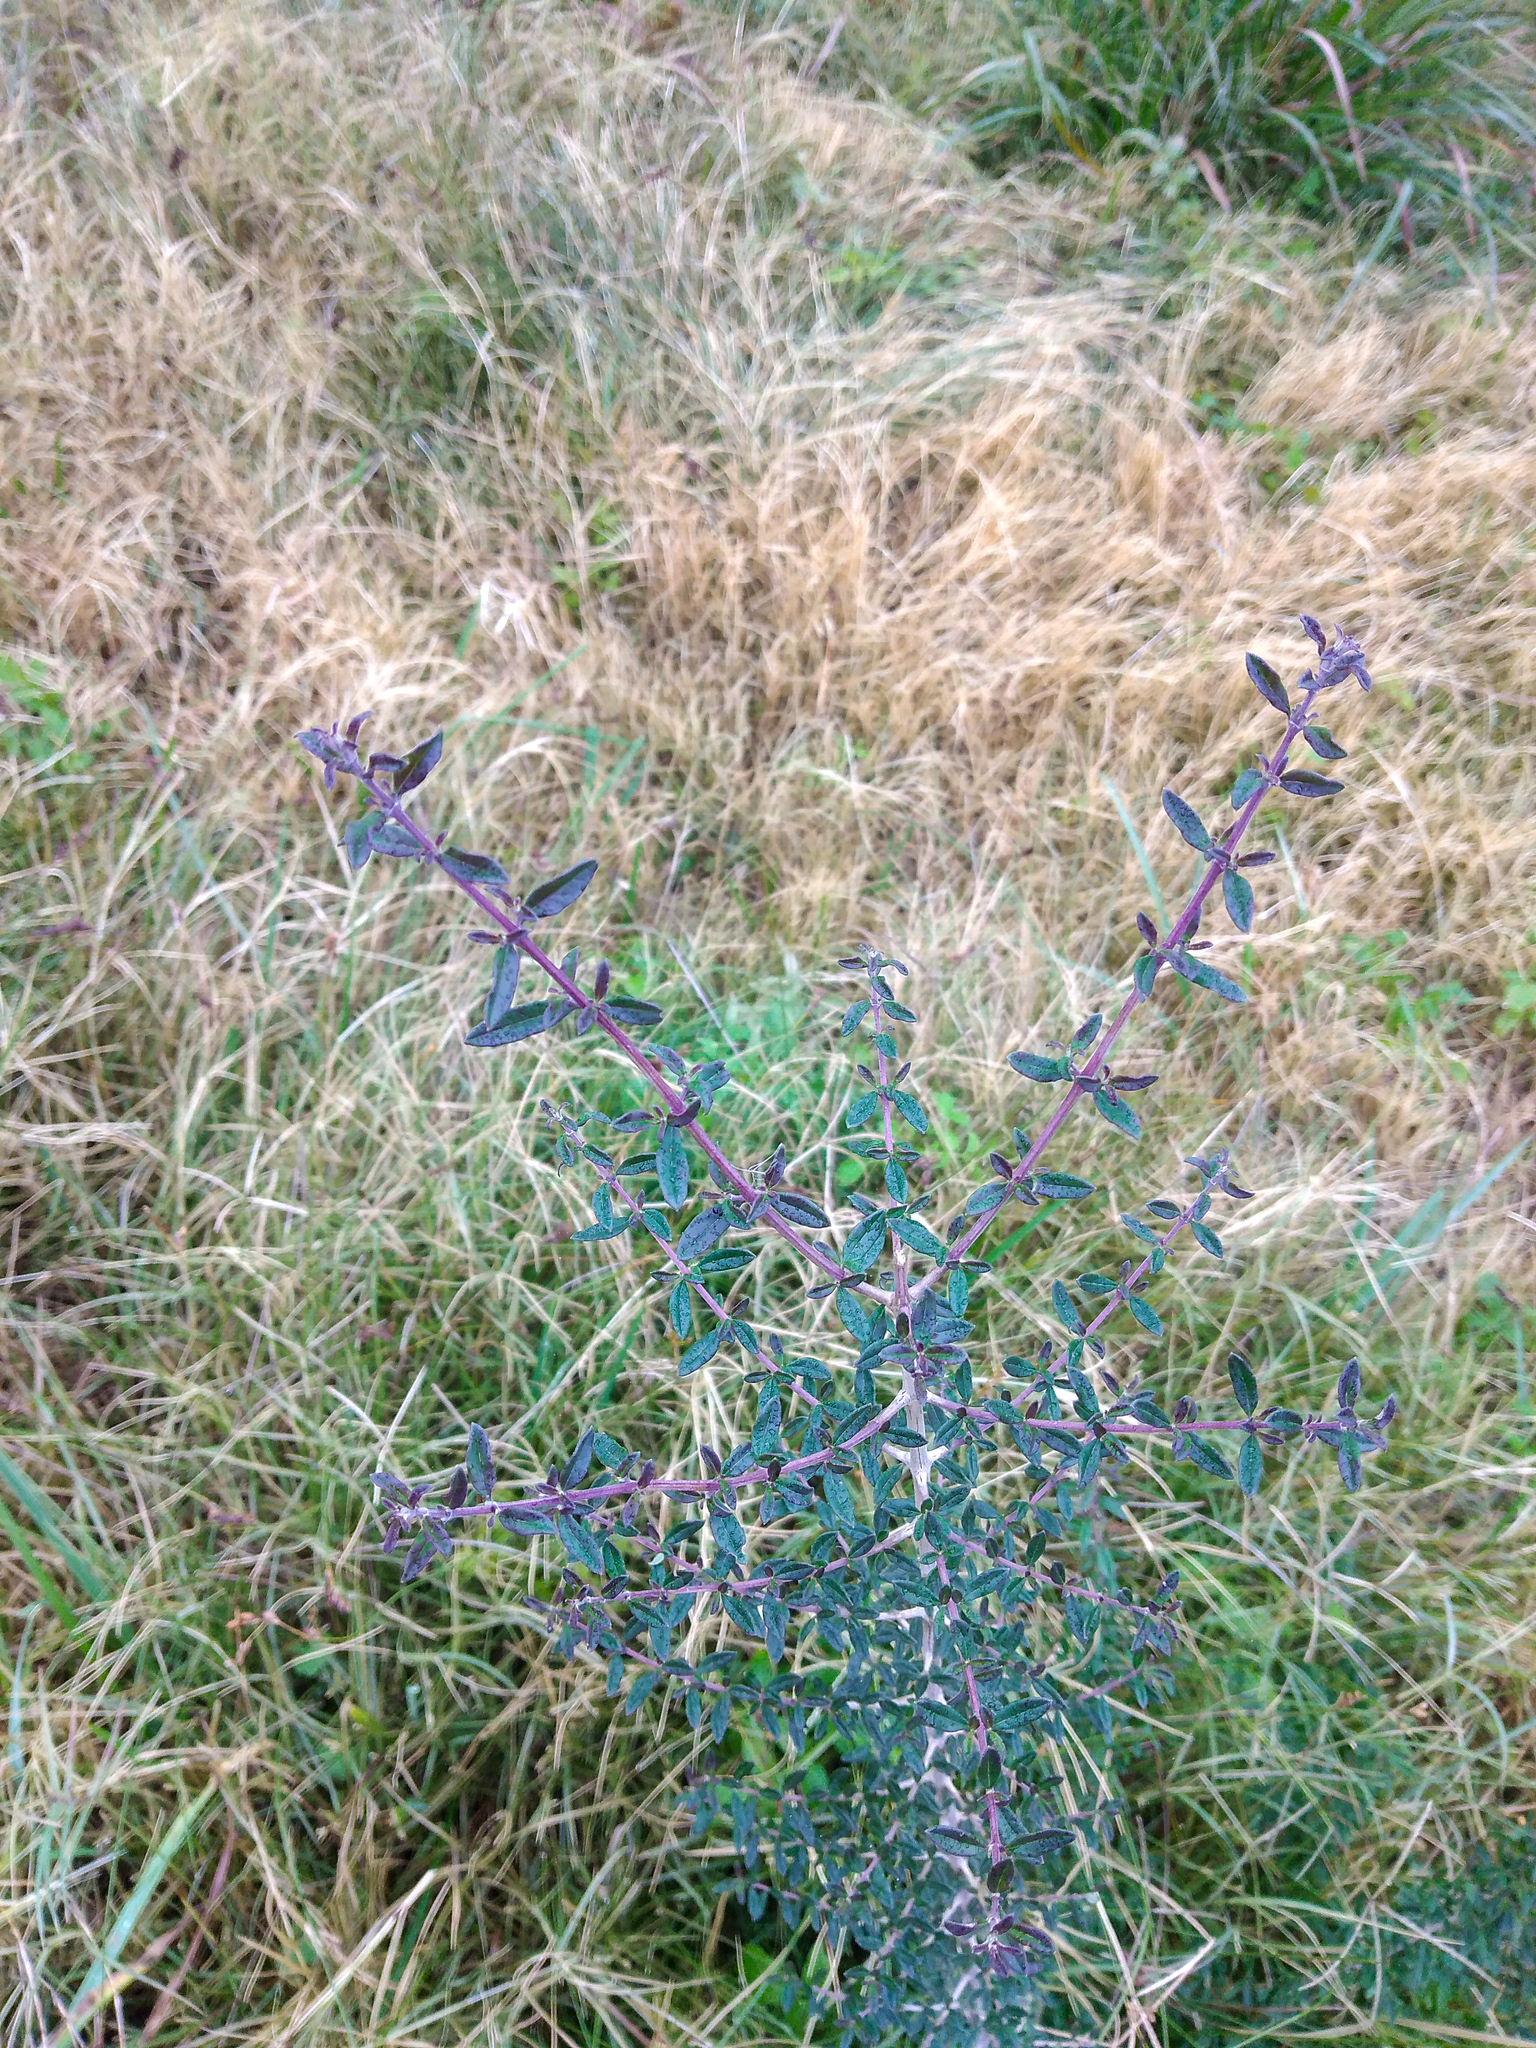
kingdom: Plantae
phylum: Tracheophyta
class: Magnoliopsida
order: Lamiales
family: Verbenaceae
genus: Aloysia
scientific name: Aloysia gratissima
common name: Common bee-brush
